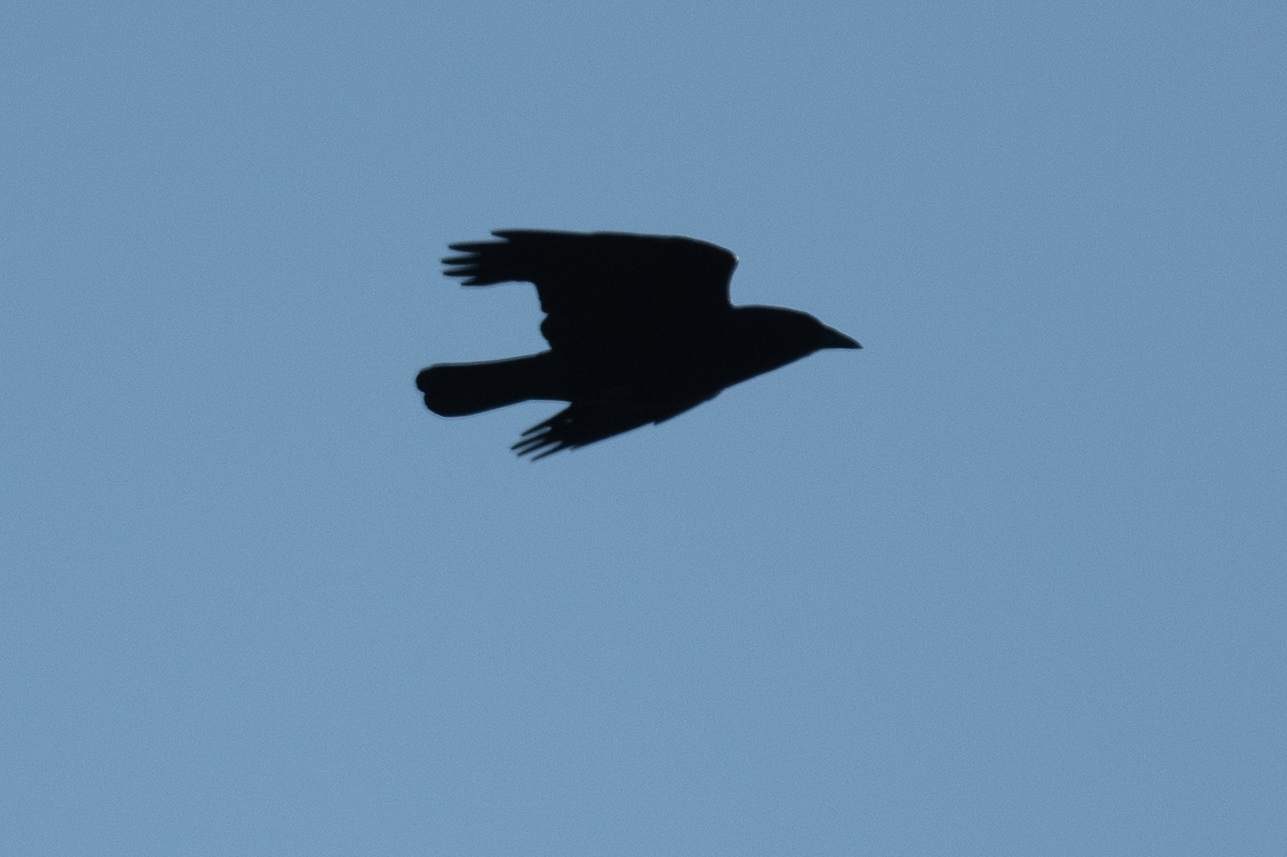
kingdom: Animalia
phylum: Chordata
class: Aves
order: Passeriformes
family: Corvidae
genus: Corvus
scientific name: Corvus brachyrhynchos
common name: American crow
